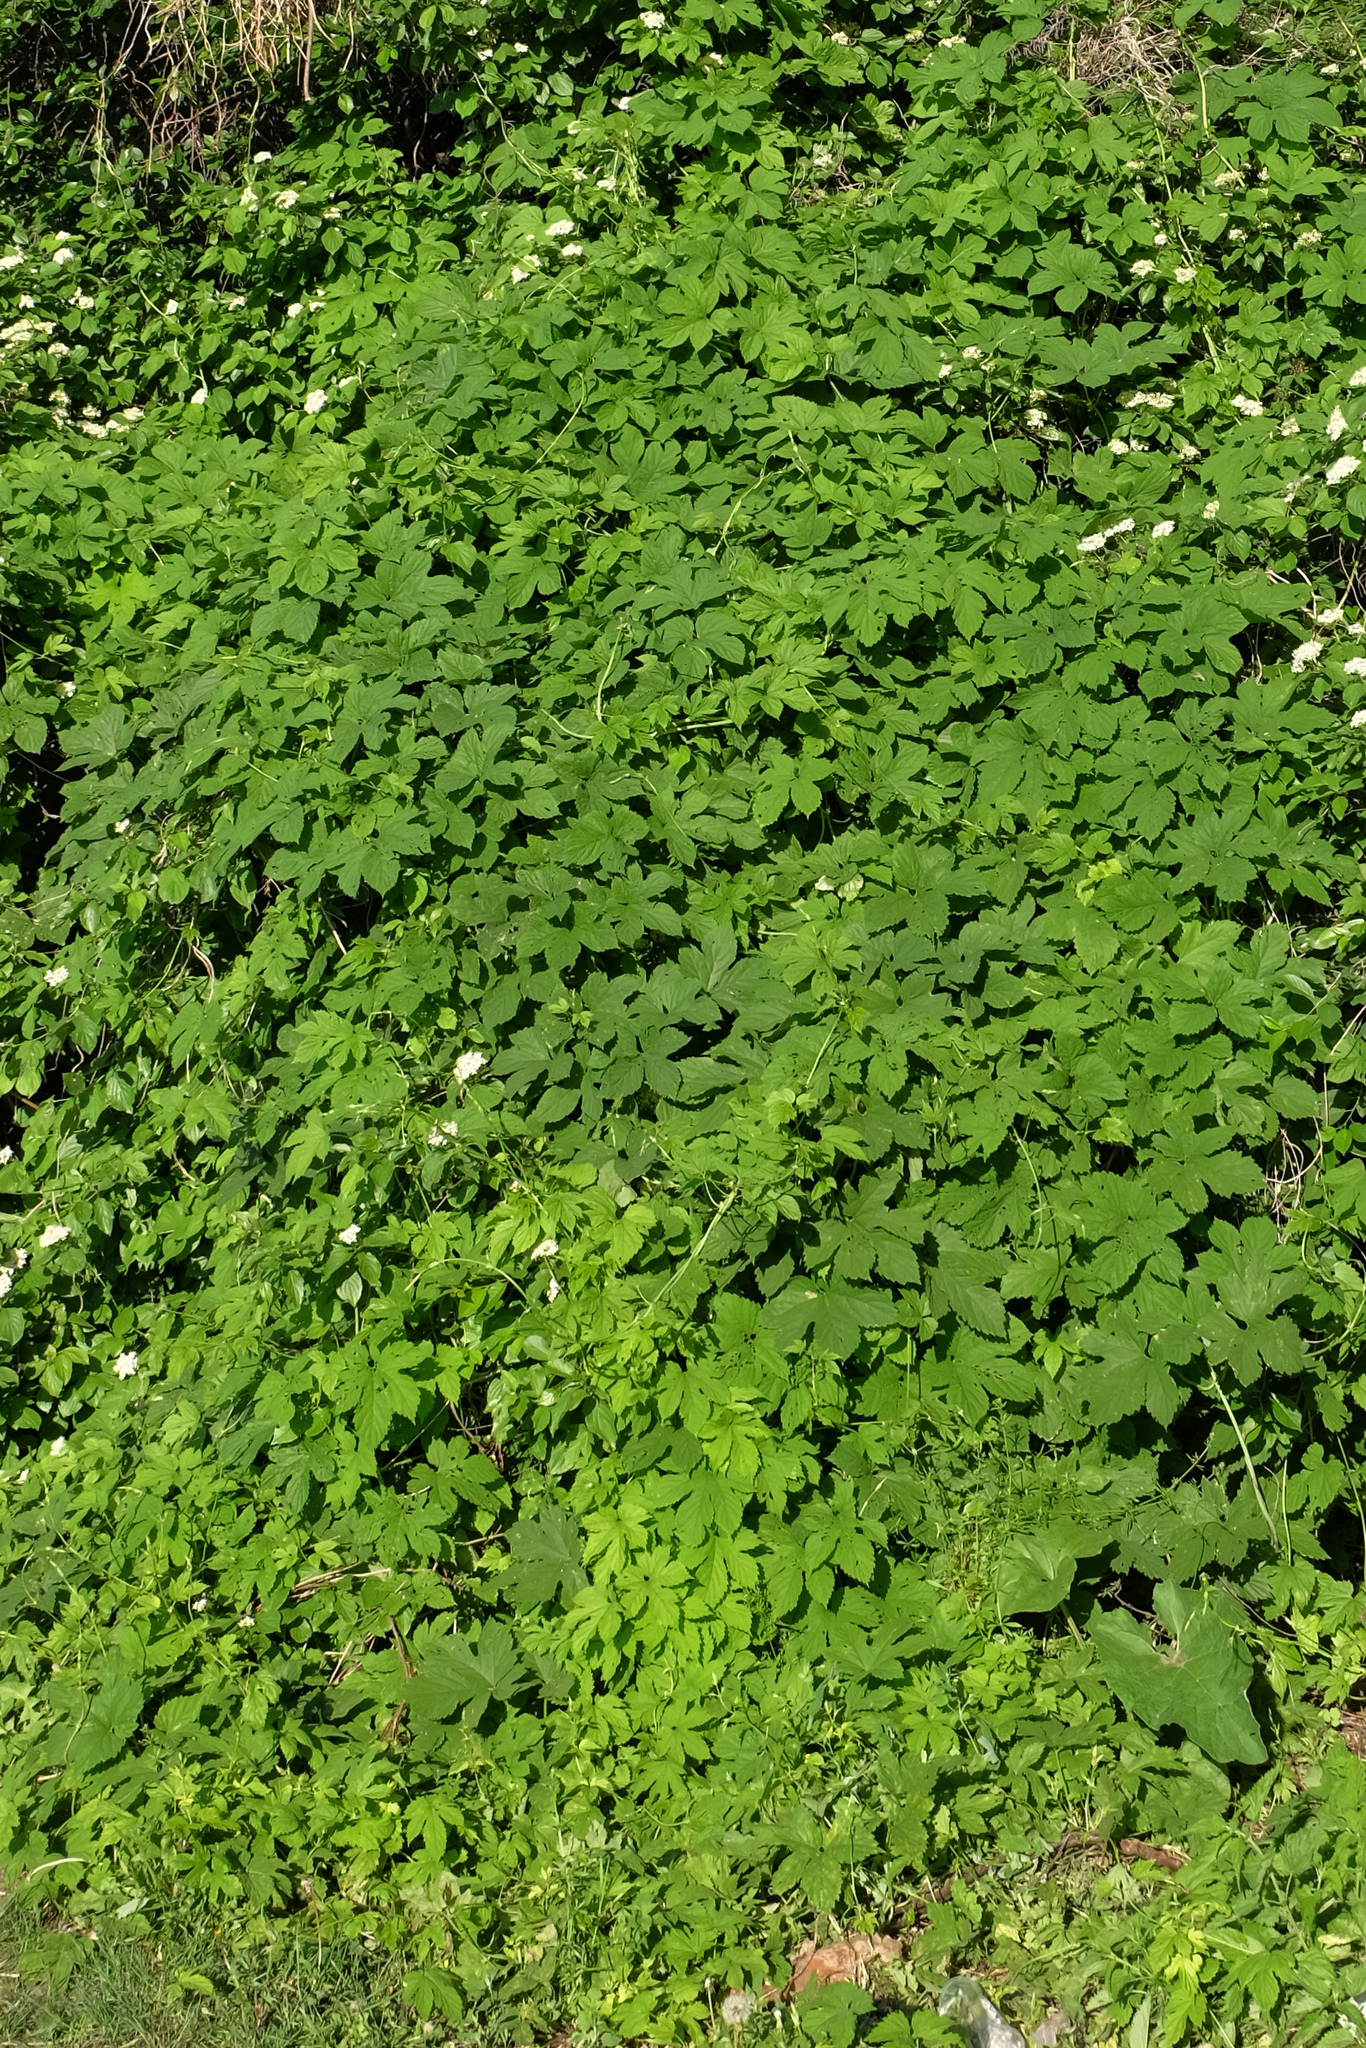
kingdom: Plantae
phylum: Tracheophyta
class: Magnoliopsida
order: Rosales
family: Cannabaceae
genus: Humulus
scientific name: Humulus lupulus
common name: Hop
